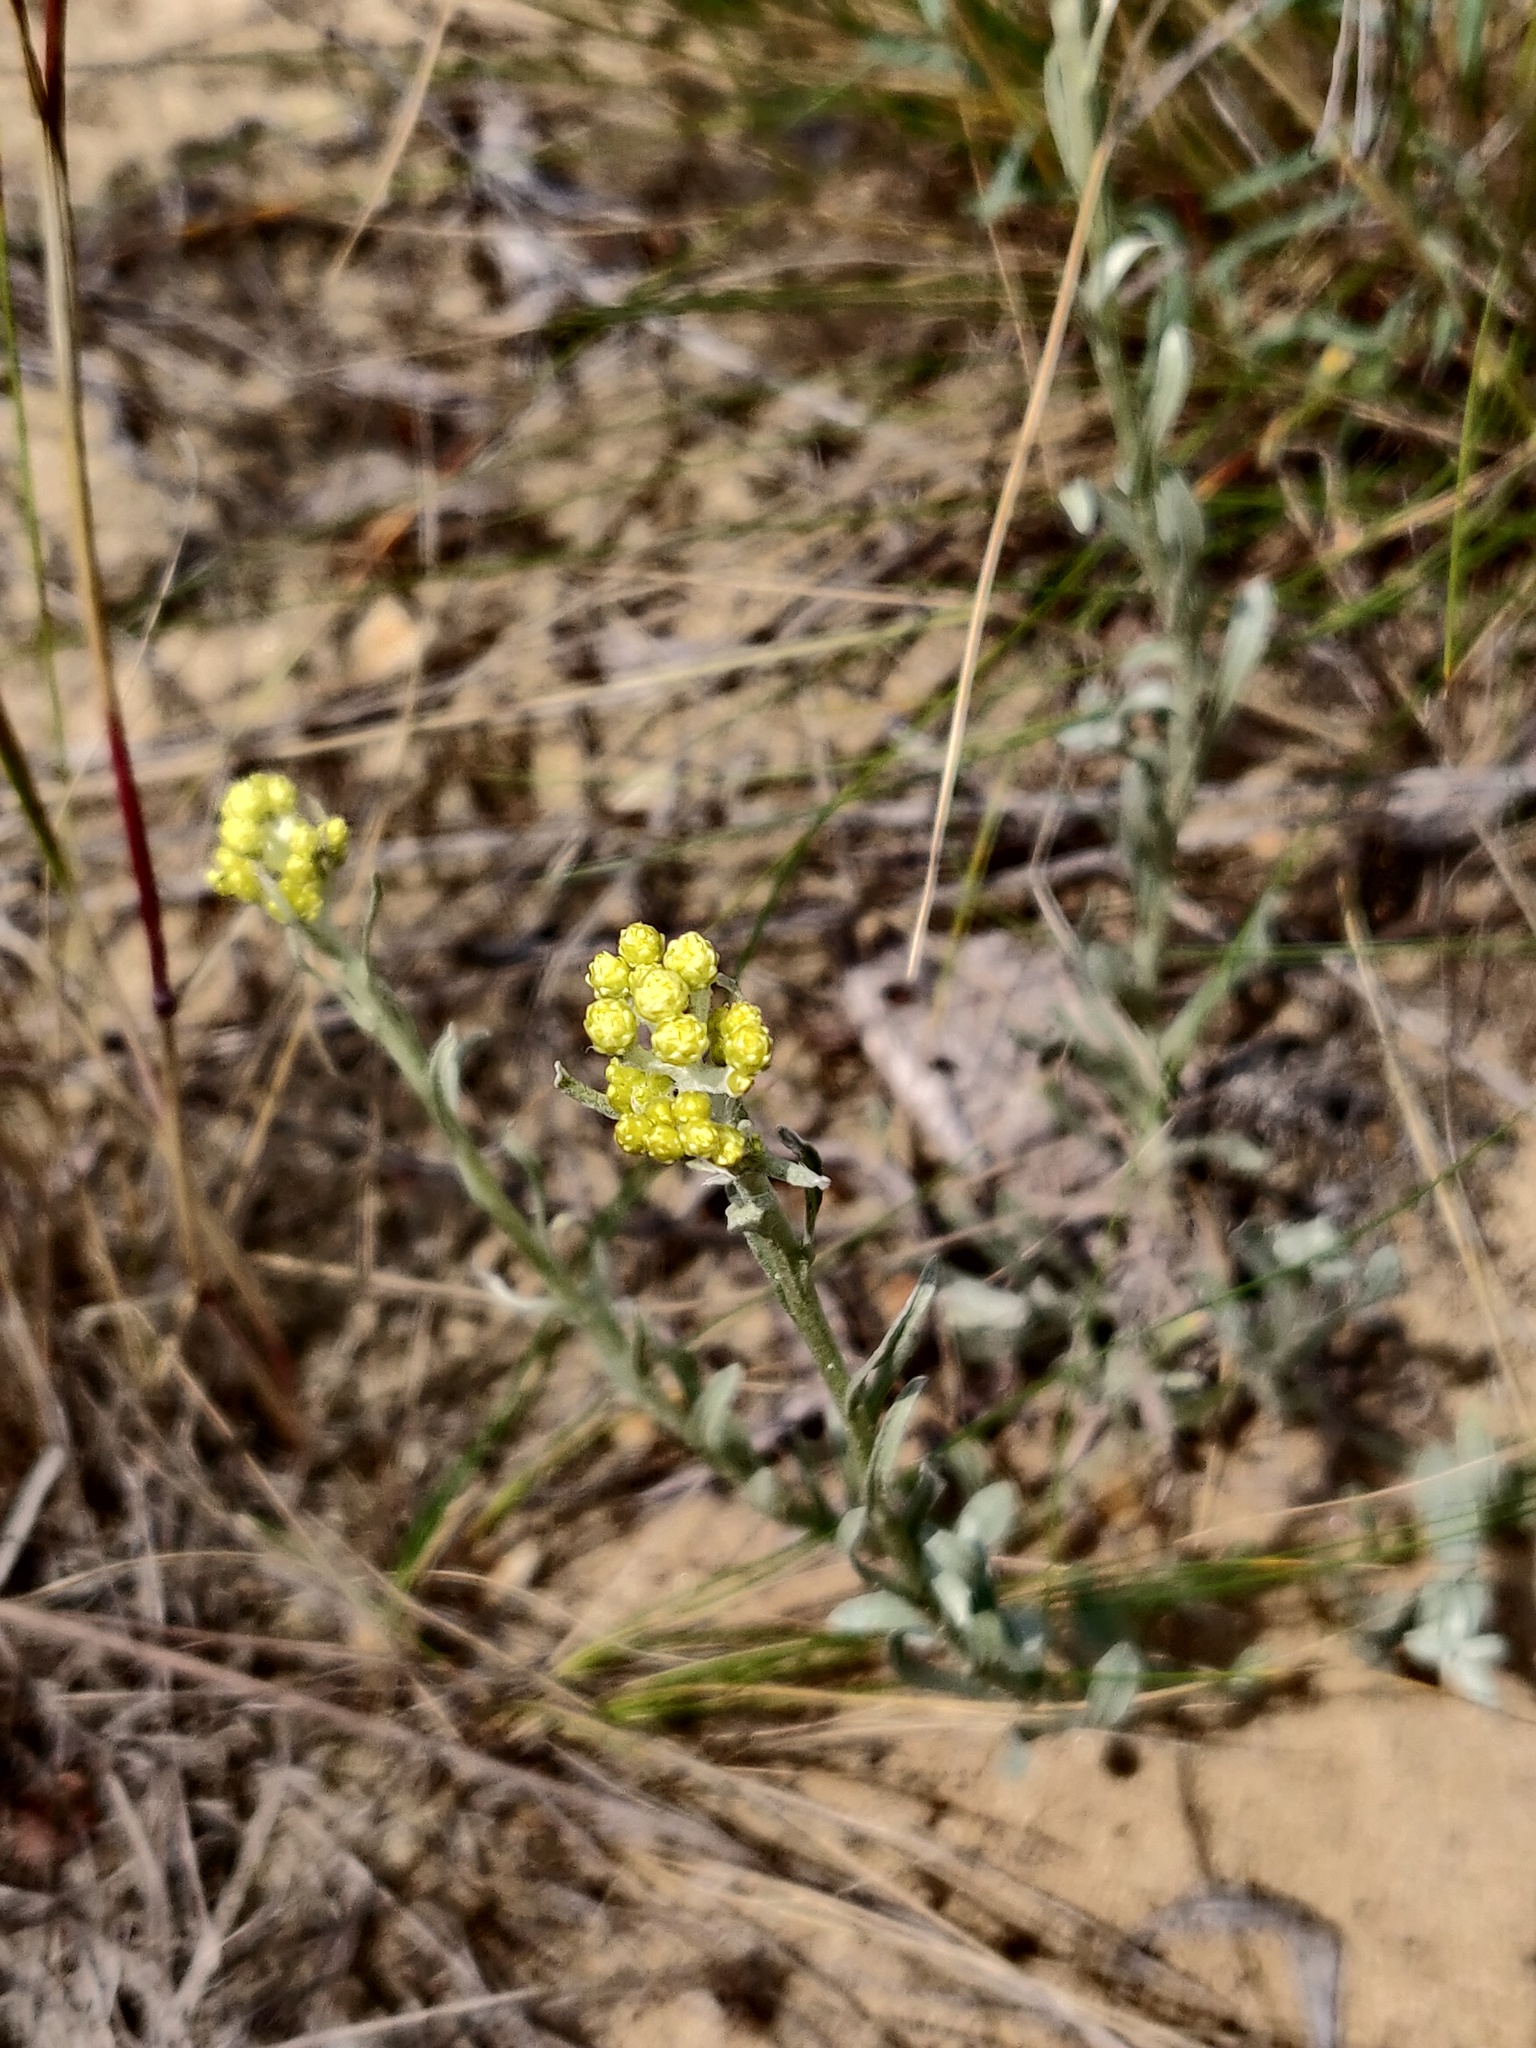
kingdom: Plantae
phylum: Tracheophyta
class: Magnoliopsida
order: Asterales
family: Asteraceae
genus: Helichrysum
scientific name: Helichrysum arenarium
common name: Strawflower
